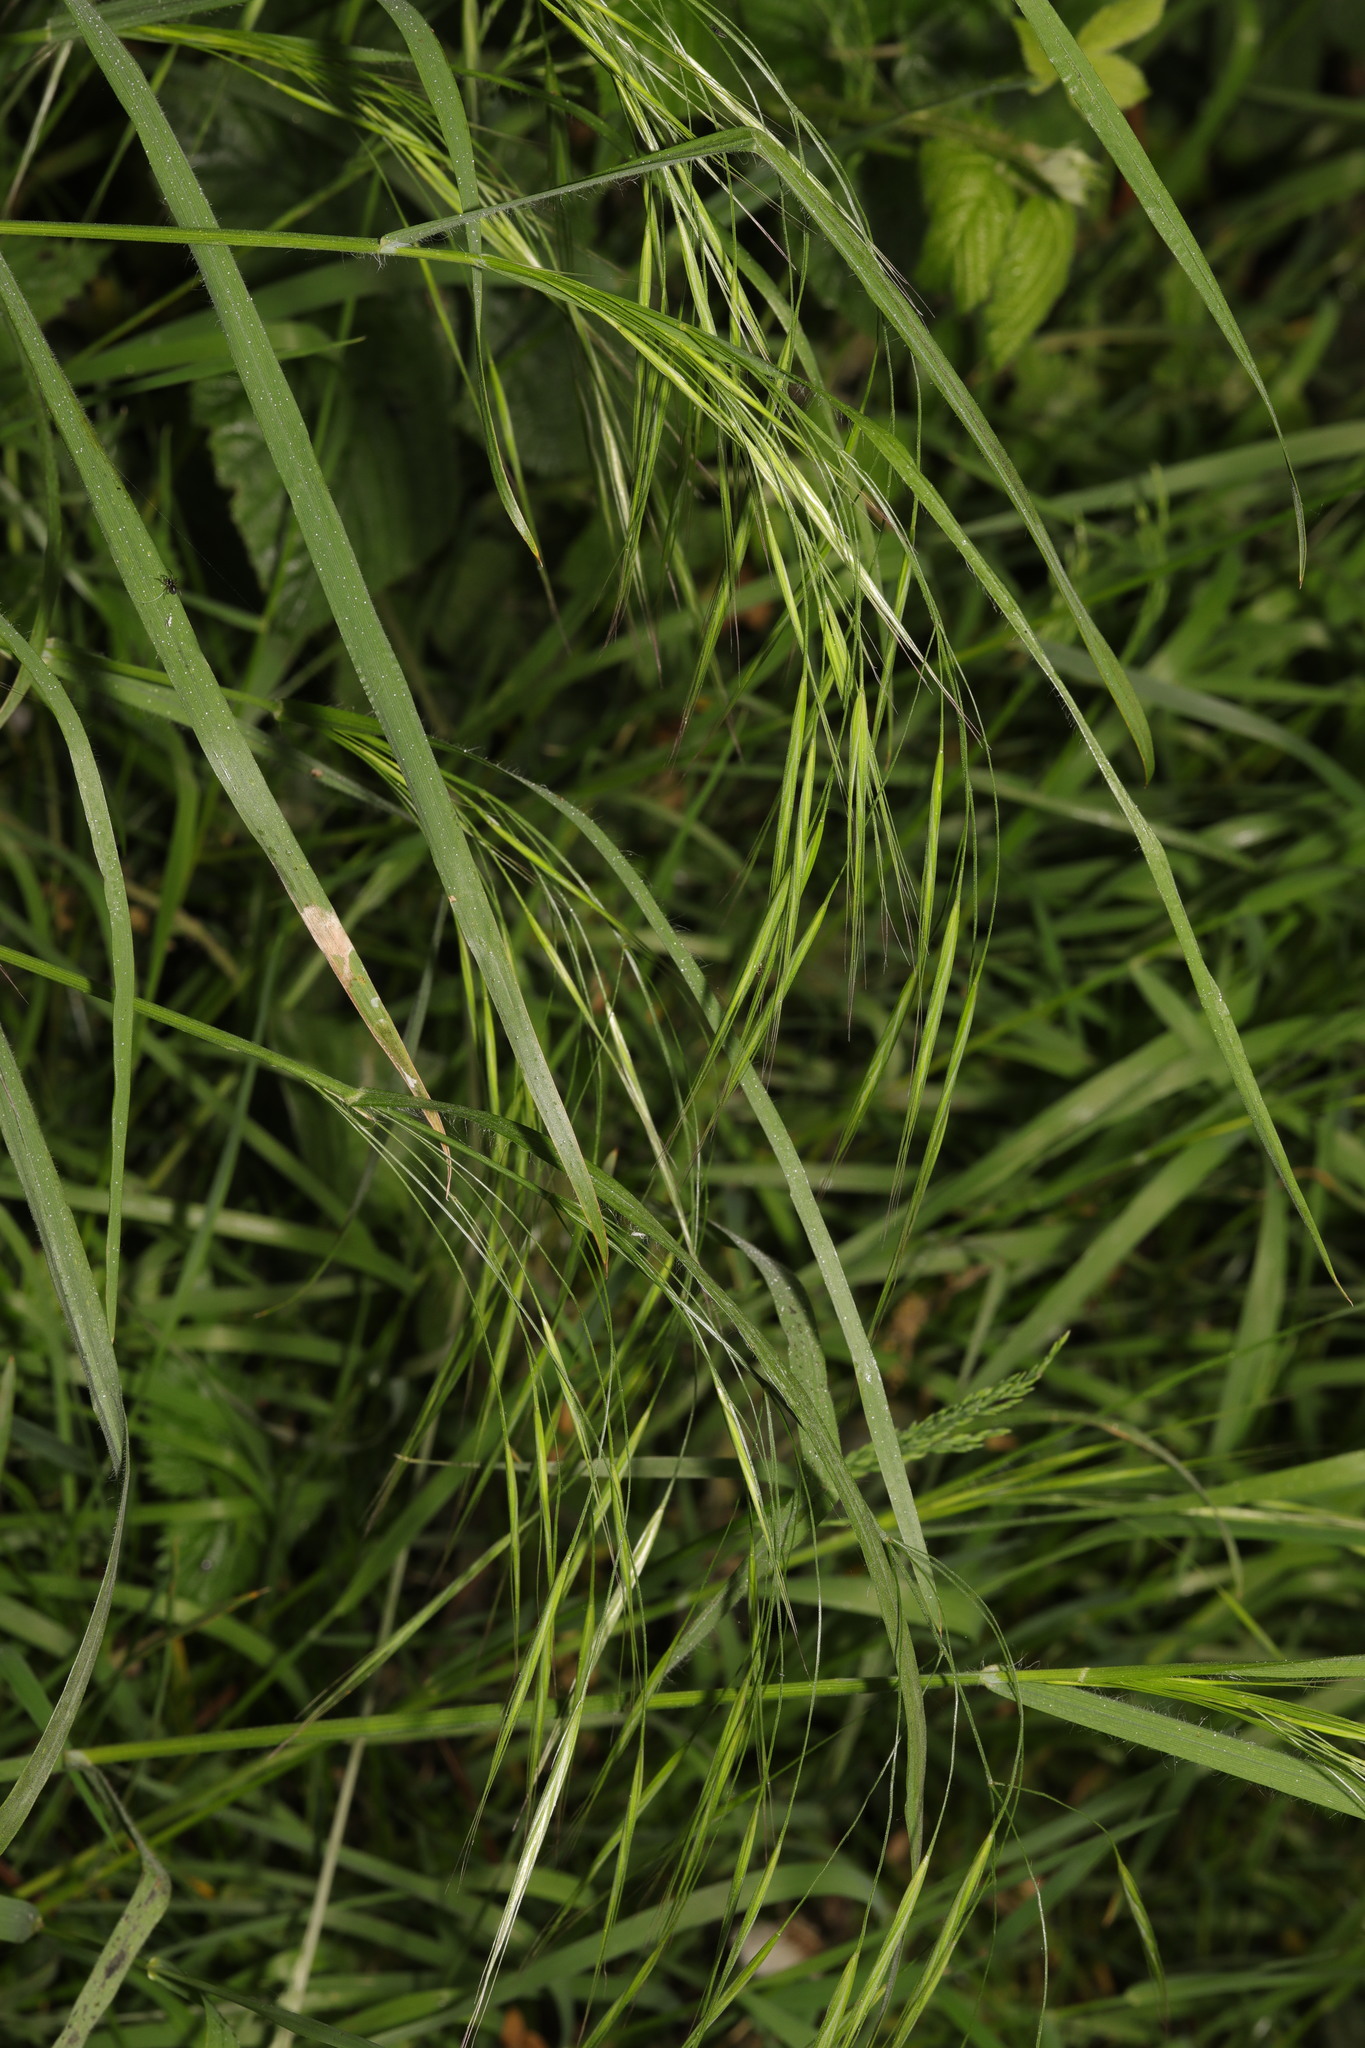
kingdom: Plantae
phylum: Tracheophyta
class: Liliopsida
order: Poales
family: Poaceae
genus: Bromus
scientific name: Bromus sterilis
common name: Poverty brome
